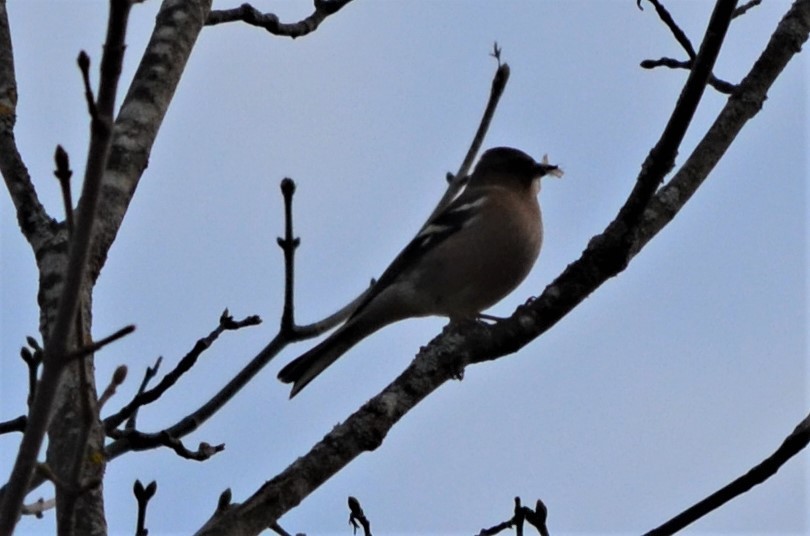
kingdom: Animalia
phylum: Chordata
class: Aves
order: Passeriformes
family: Fringillidae
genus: Fringilla
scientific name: Fringilla coelebs
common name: Common chaffinch
